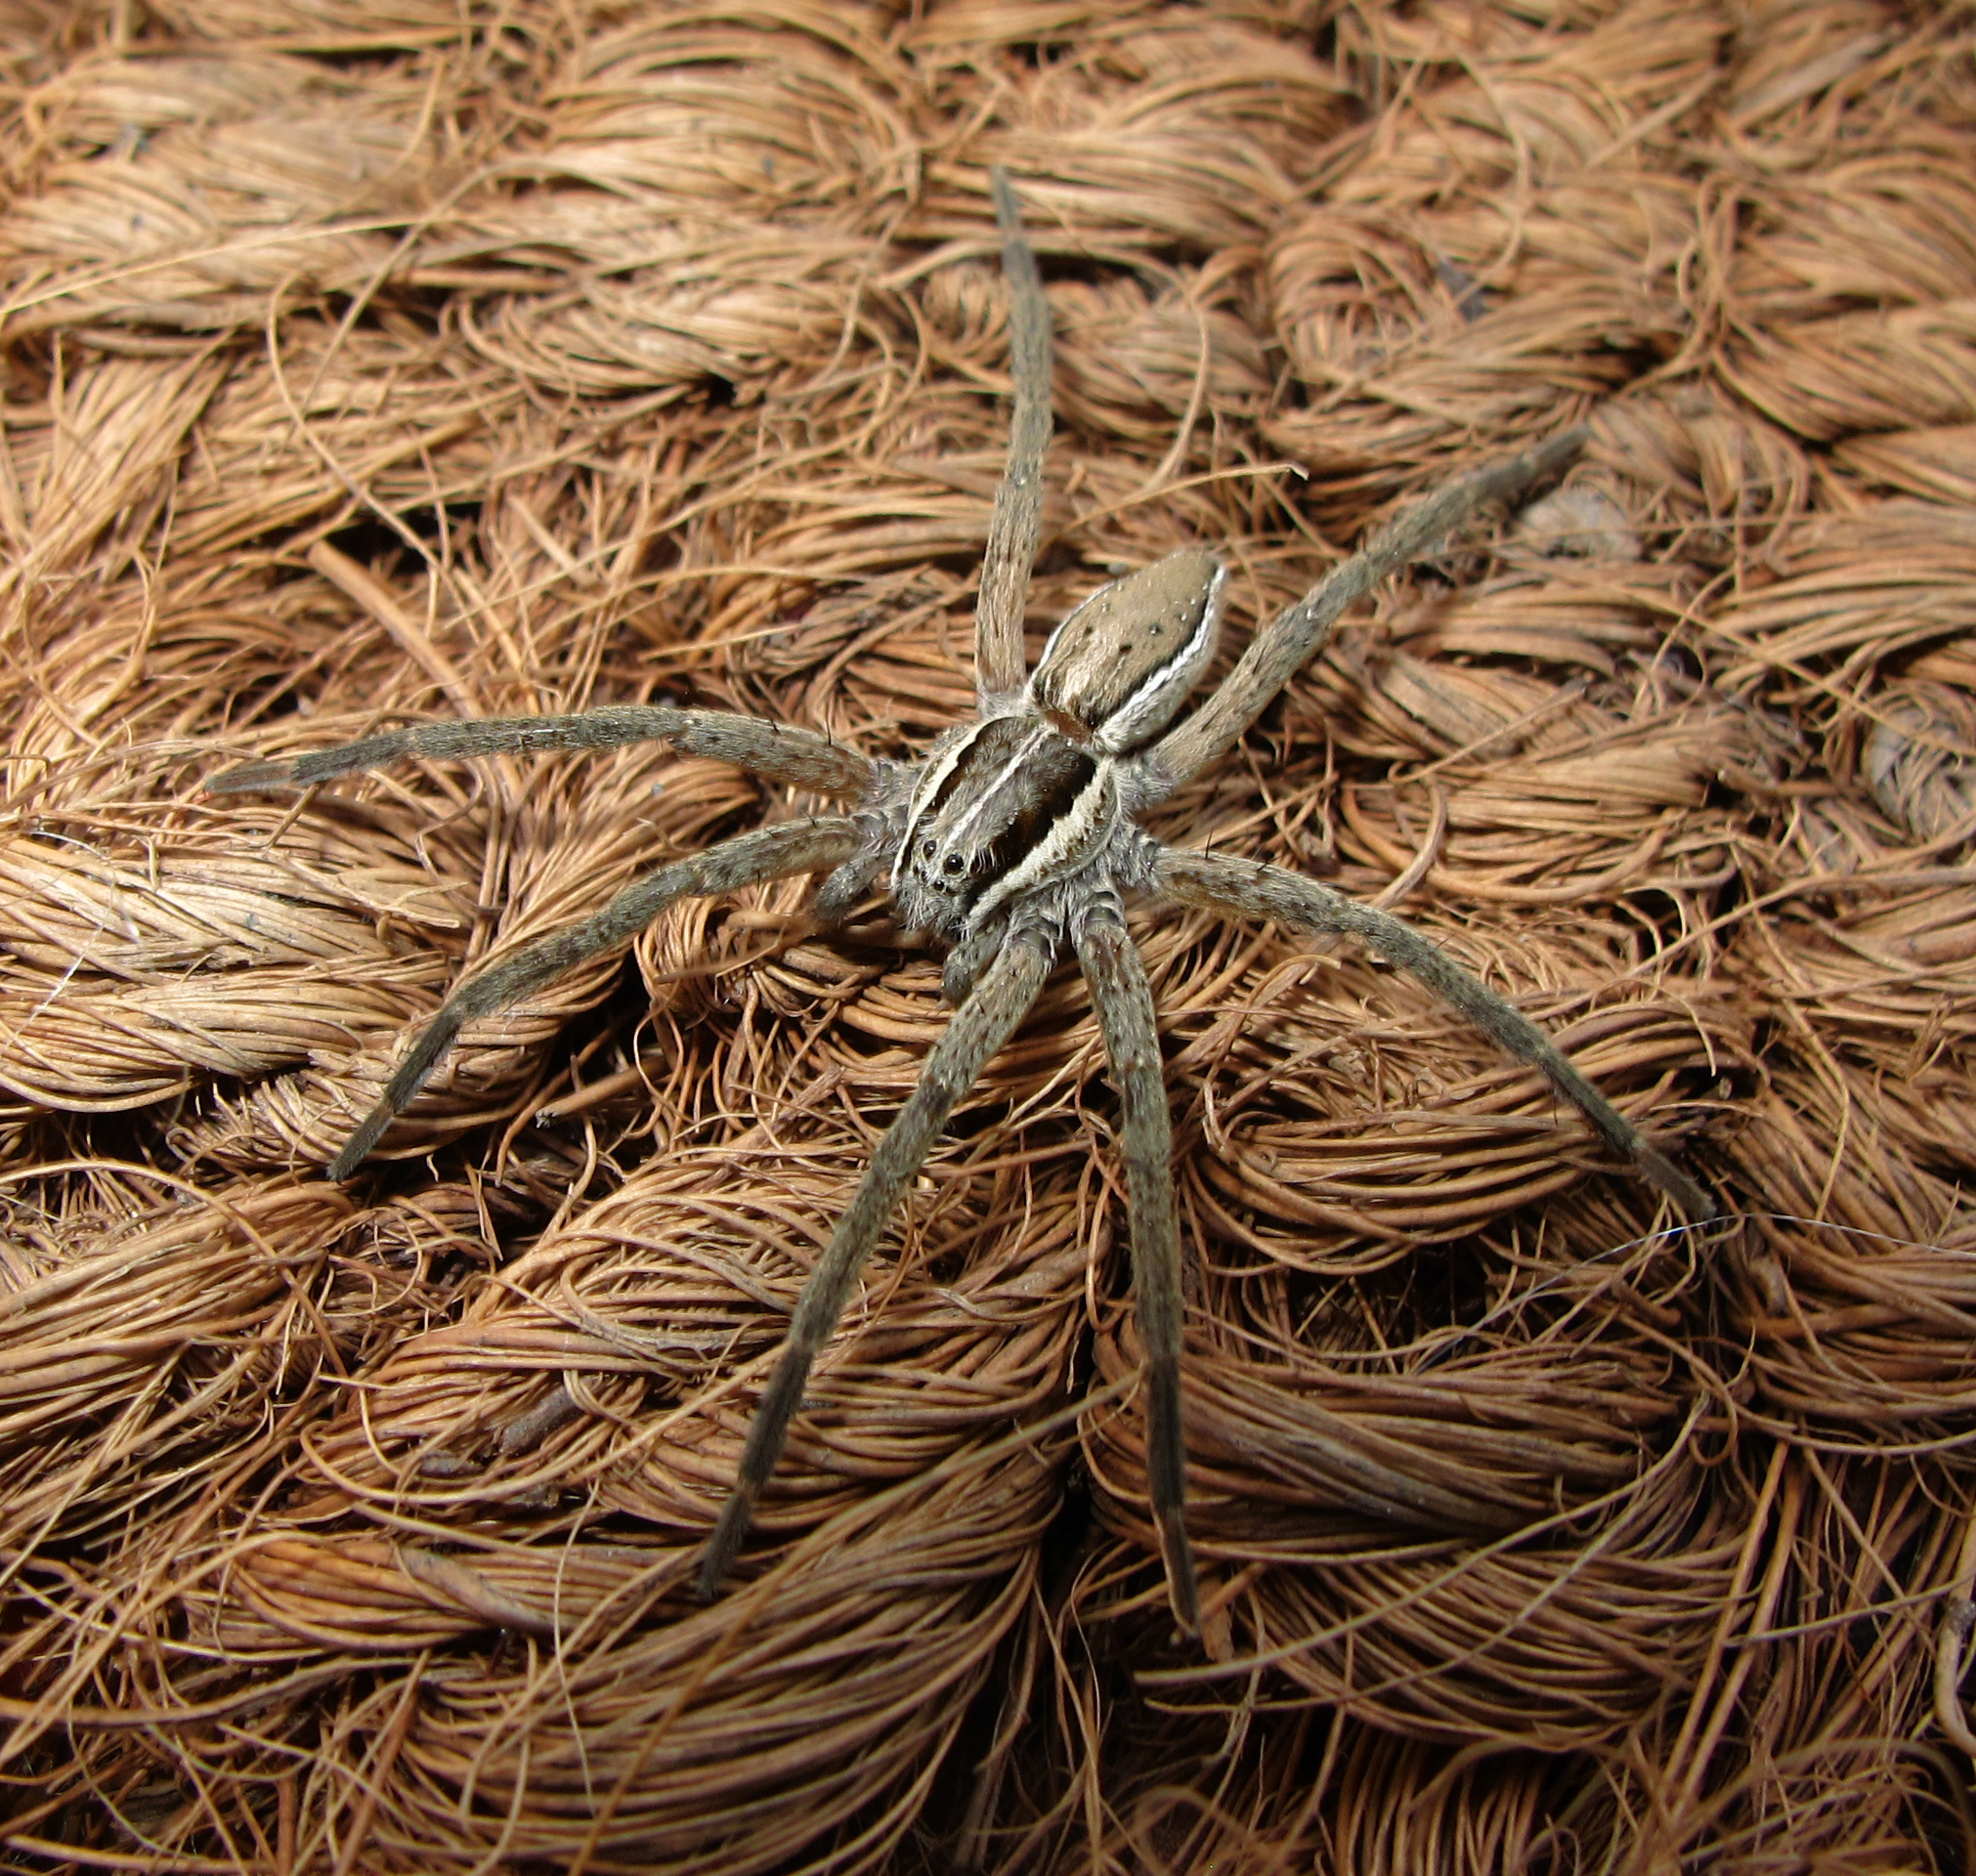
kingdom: Animalia
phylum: Arthropoda
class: Arachnida
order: Araneae
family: Pisauridae
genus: Dolomedes
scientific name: Dolomedes minor
